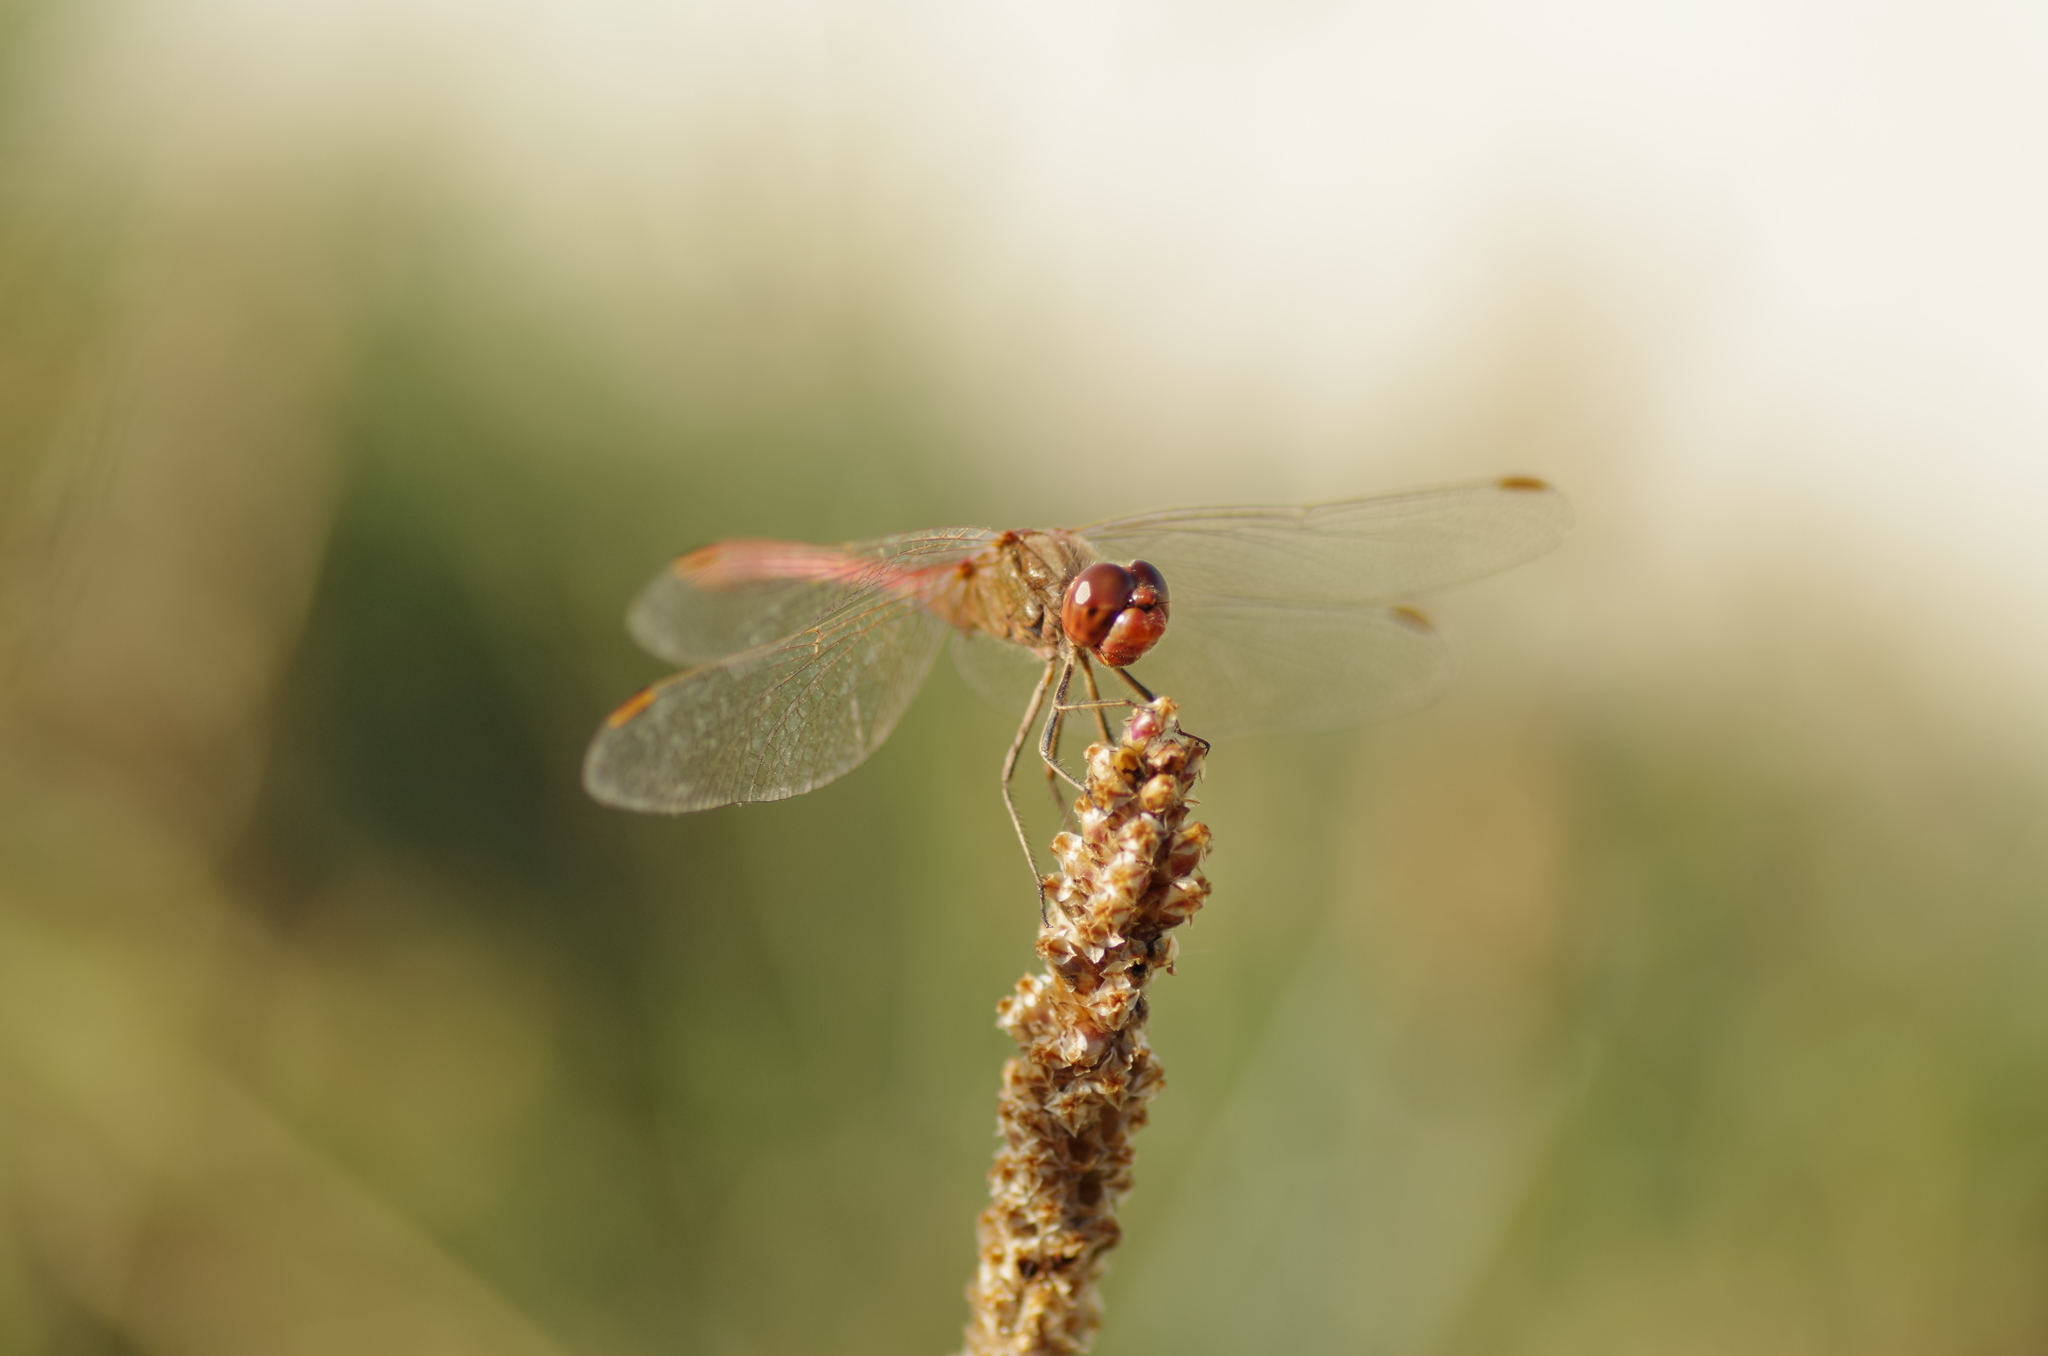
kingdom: Animalia
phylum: Arthropoda
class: Insecta
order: Odonata
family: Libellulidae
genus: Sympetrum
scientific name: Sympetrum meridionale
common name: Southern darter
